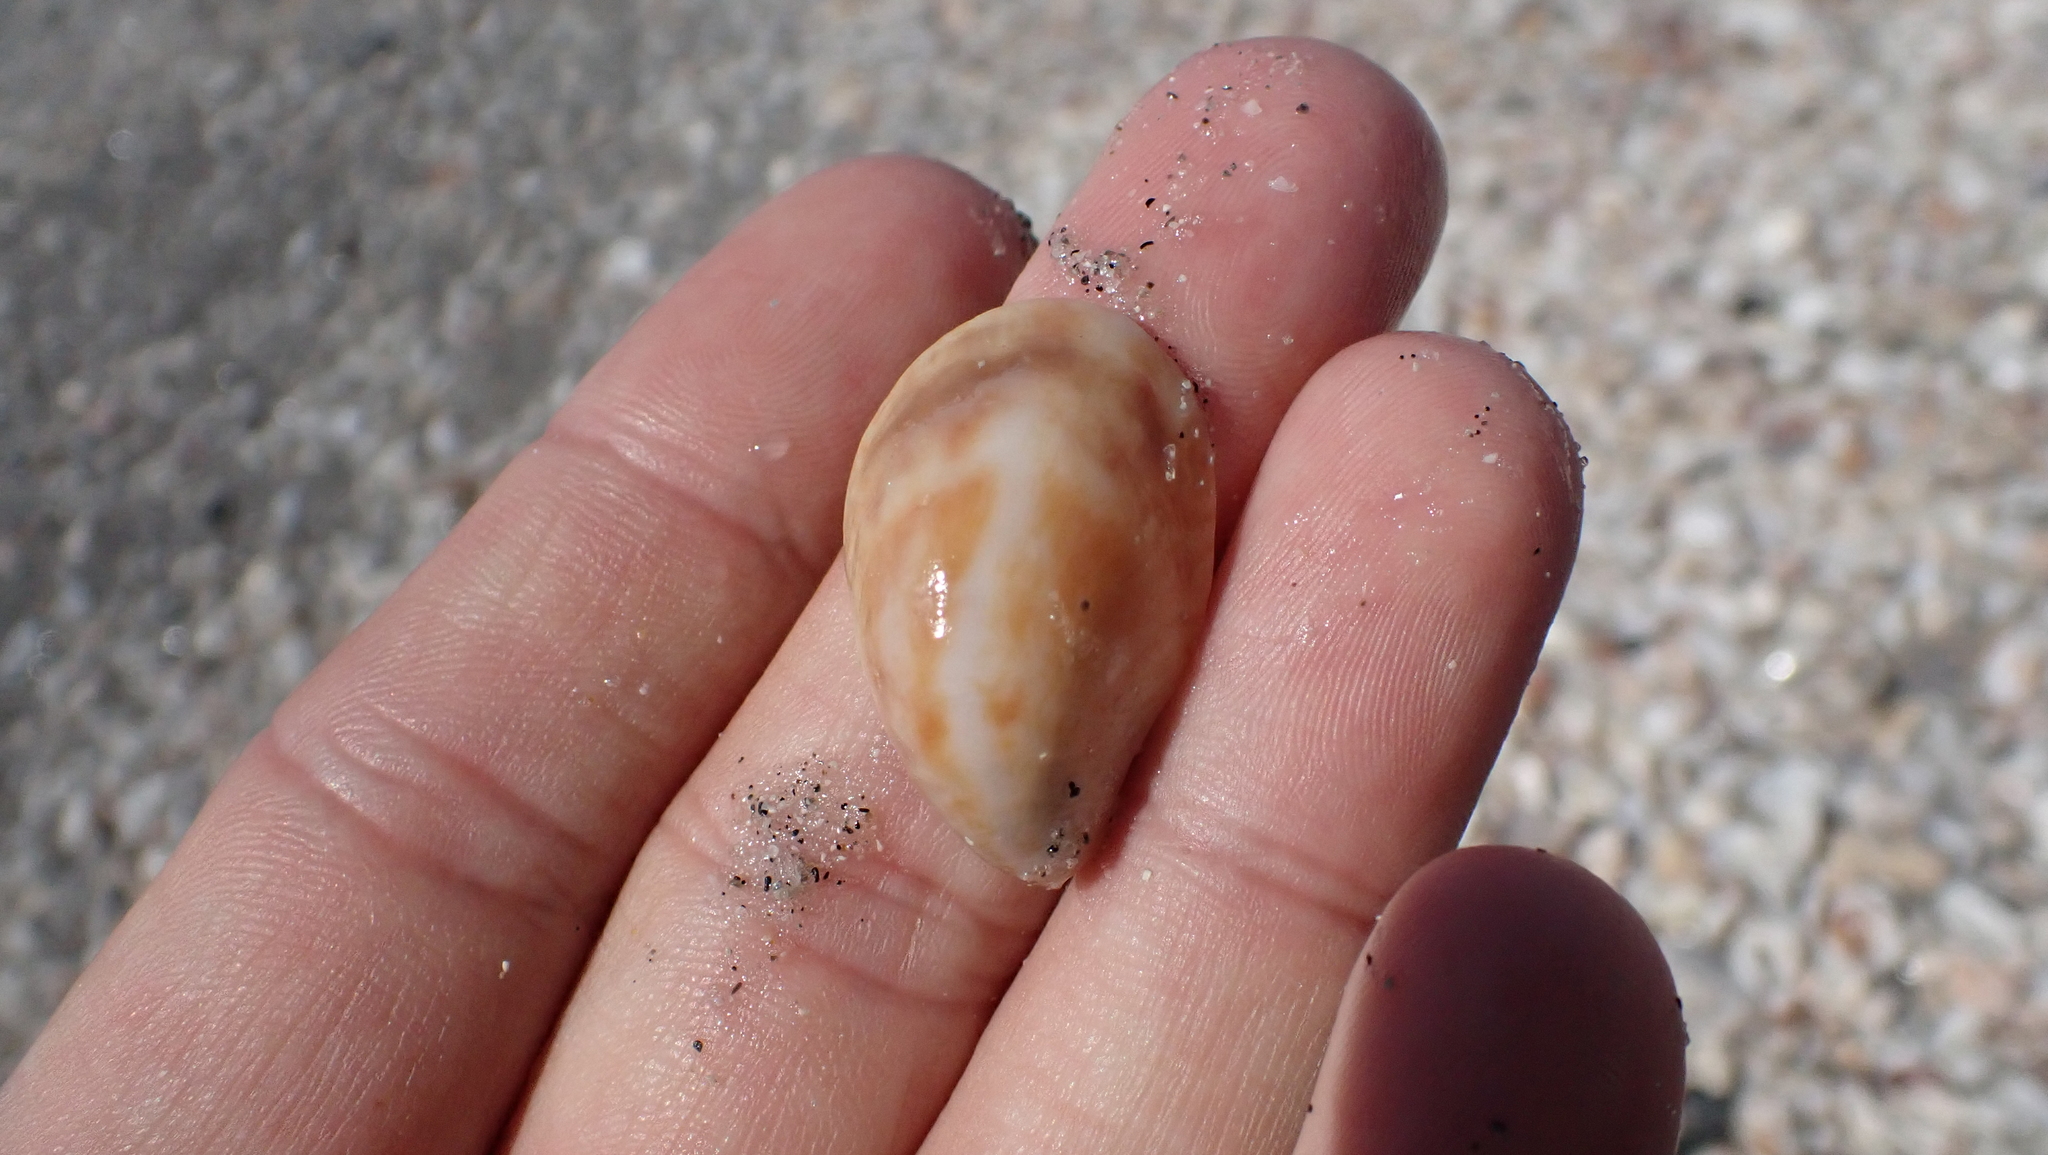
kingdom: Animalia
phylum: Mollusca
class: Gastropoda
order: Littorinimorpha
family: Calyptraeidae
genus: Crepidula
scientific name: Crepidula fornicata
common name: Slipper limpet
